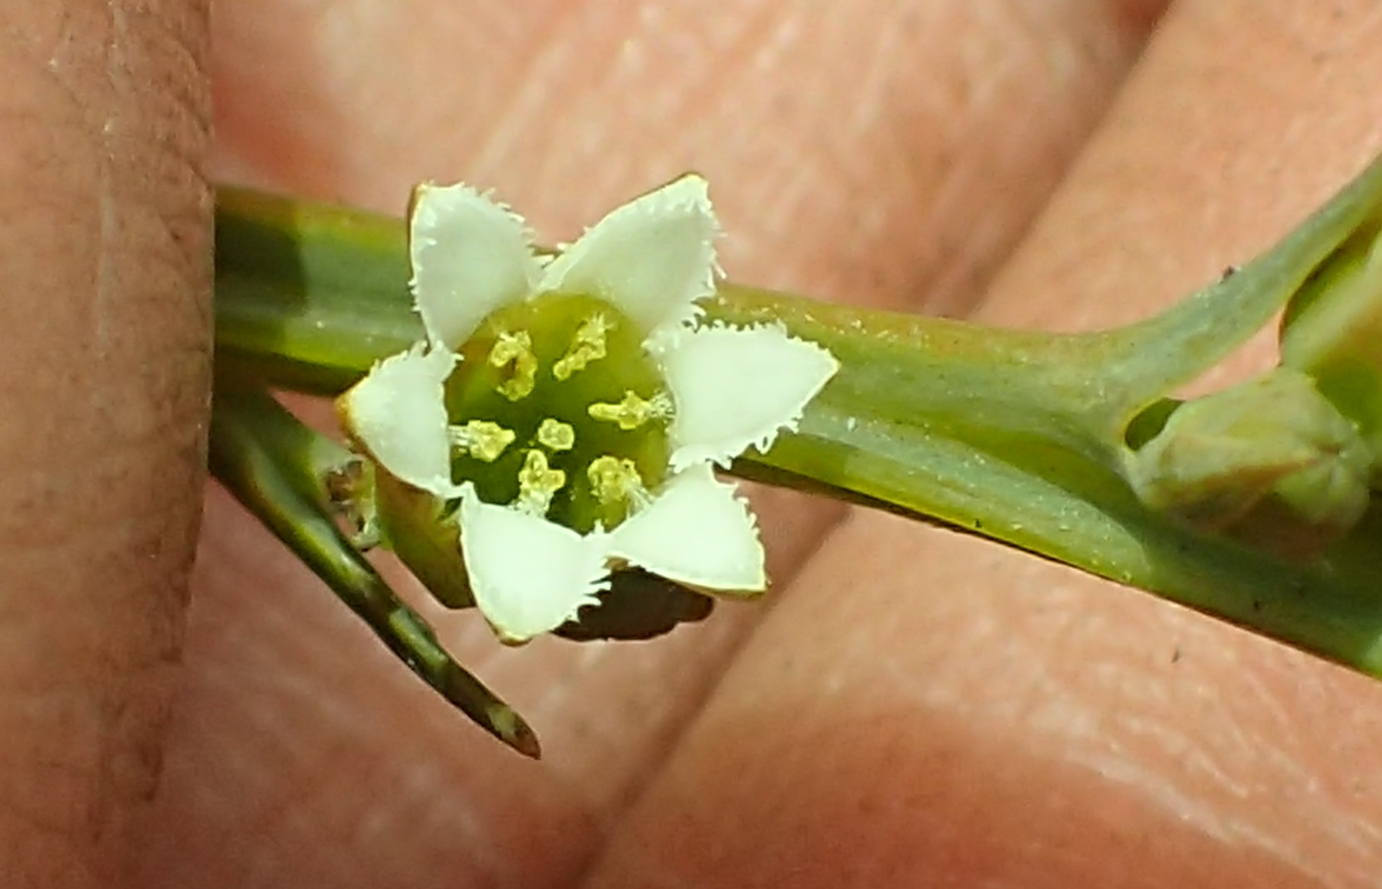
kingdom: Plantae
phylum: Tracheophyta
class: Magnoliopsida
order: Santalales
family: Thesiaceae
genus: Thesium
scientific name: Thesium angulosum
